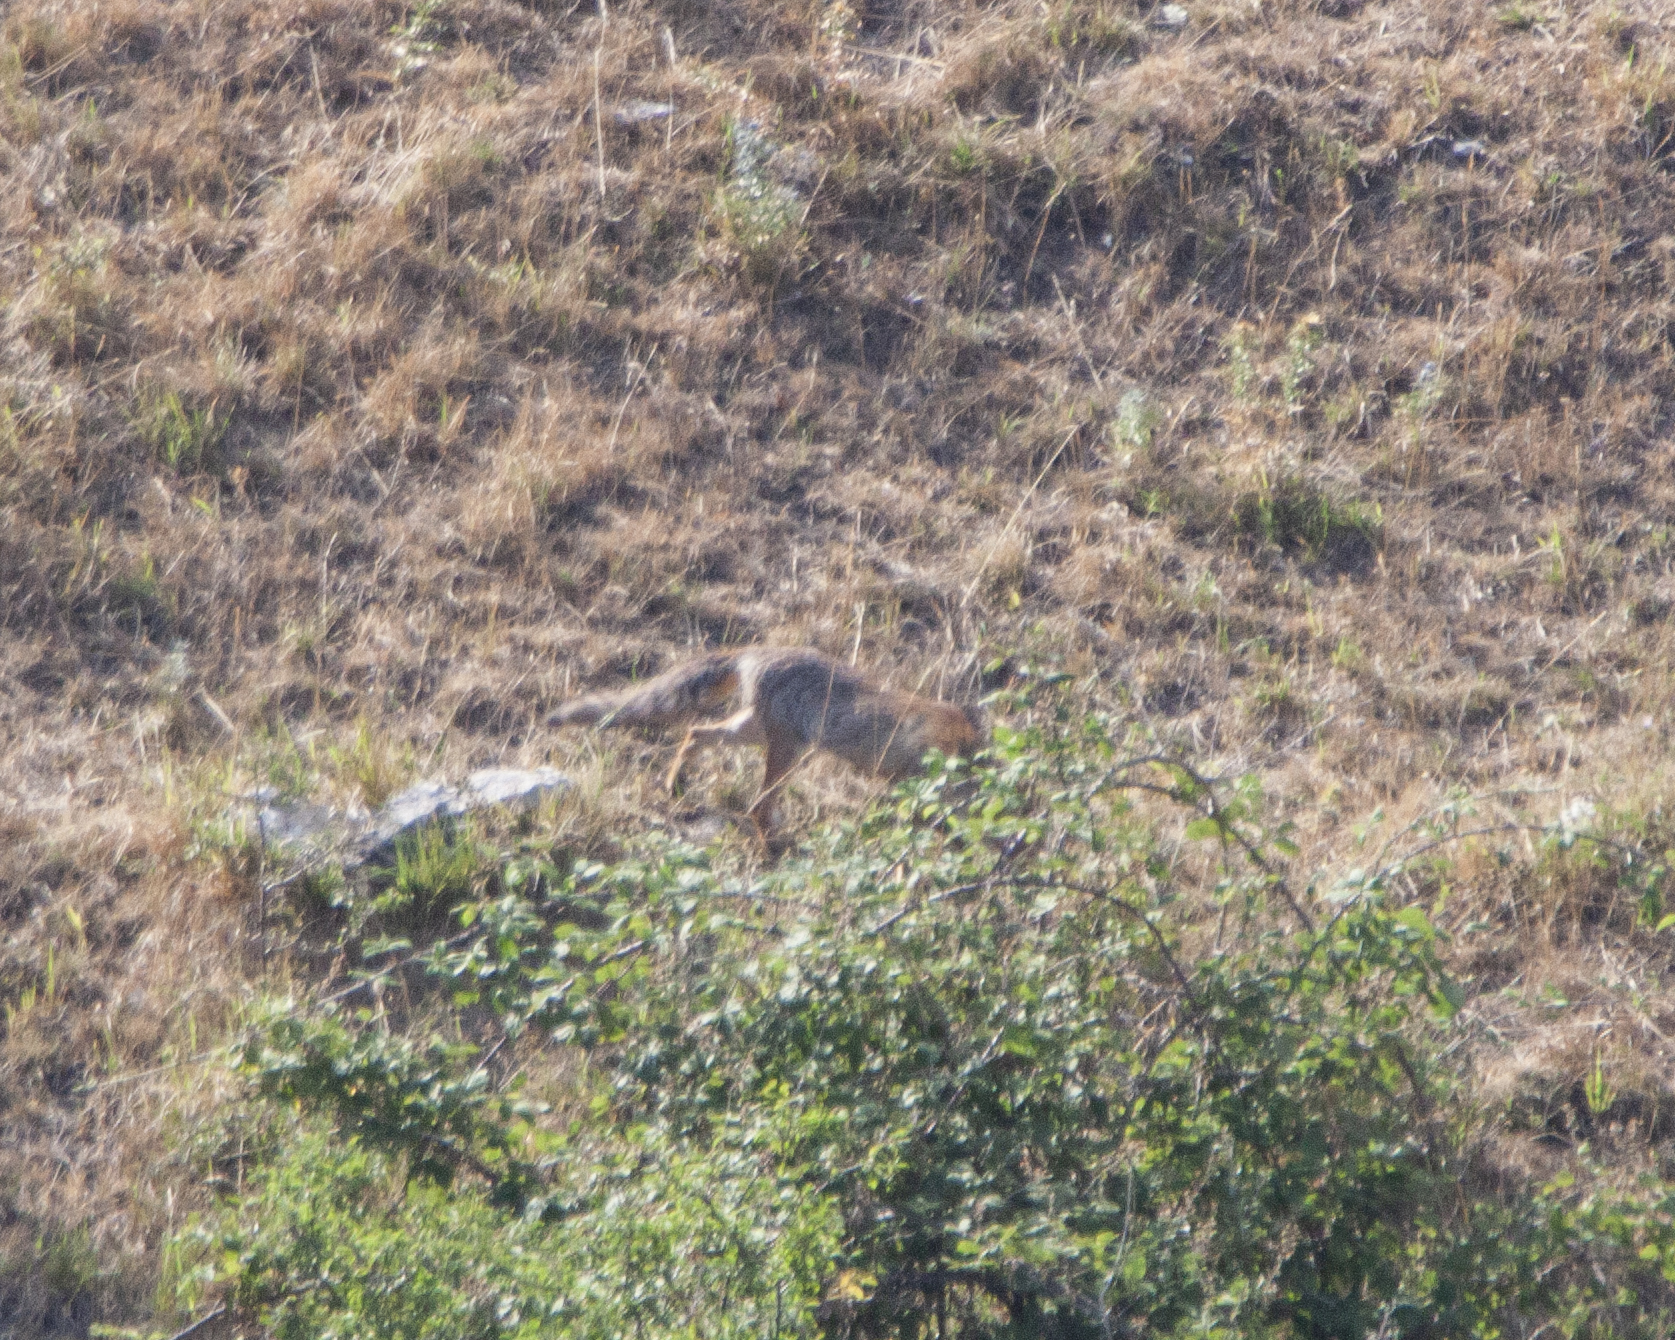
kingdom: Animalia
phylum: Chordata
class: Mammalia
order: Carnivora
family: Canidae
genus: Vulpes
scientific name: Vulpes vulpes
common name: Red fox
